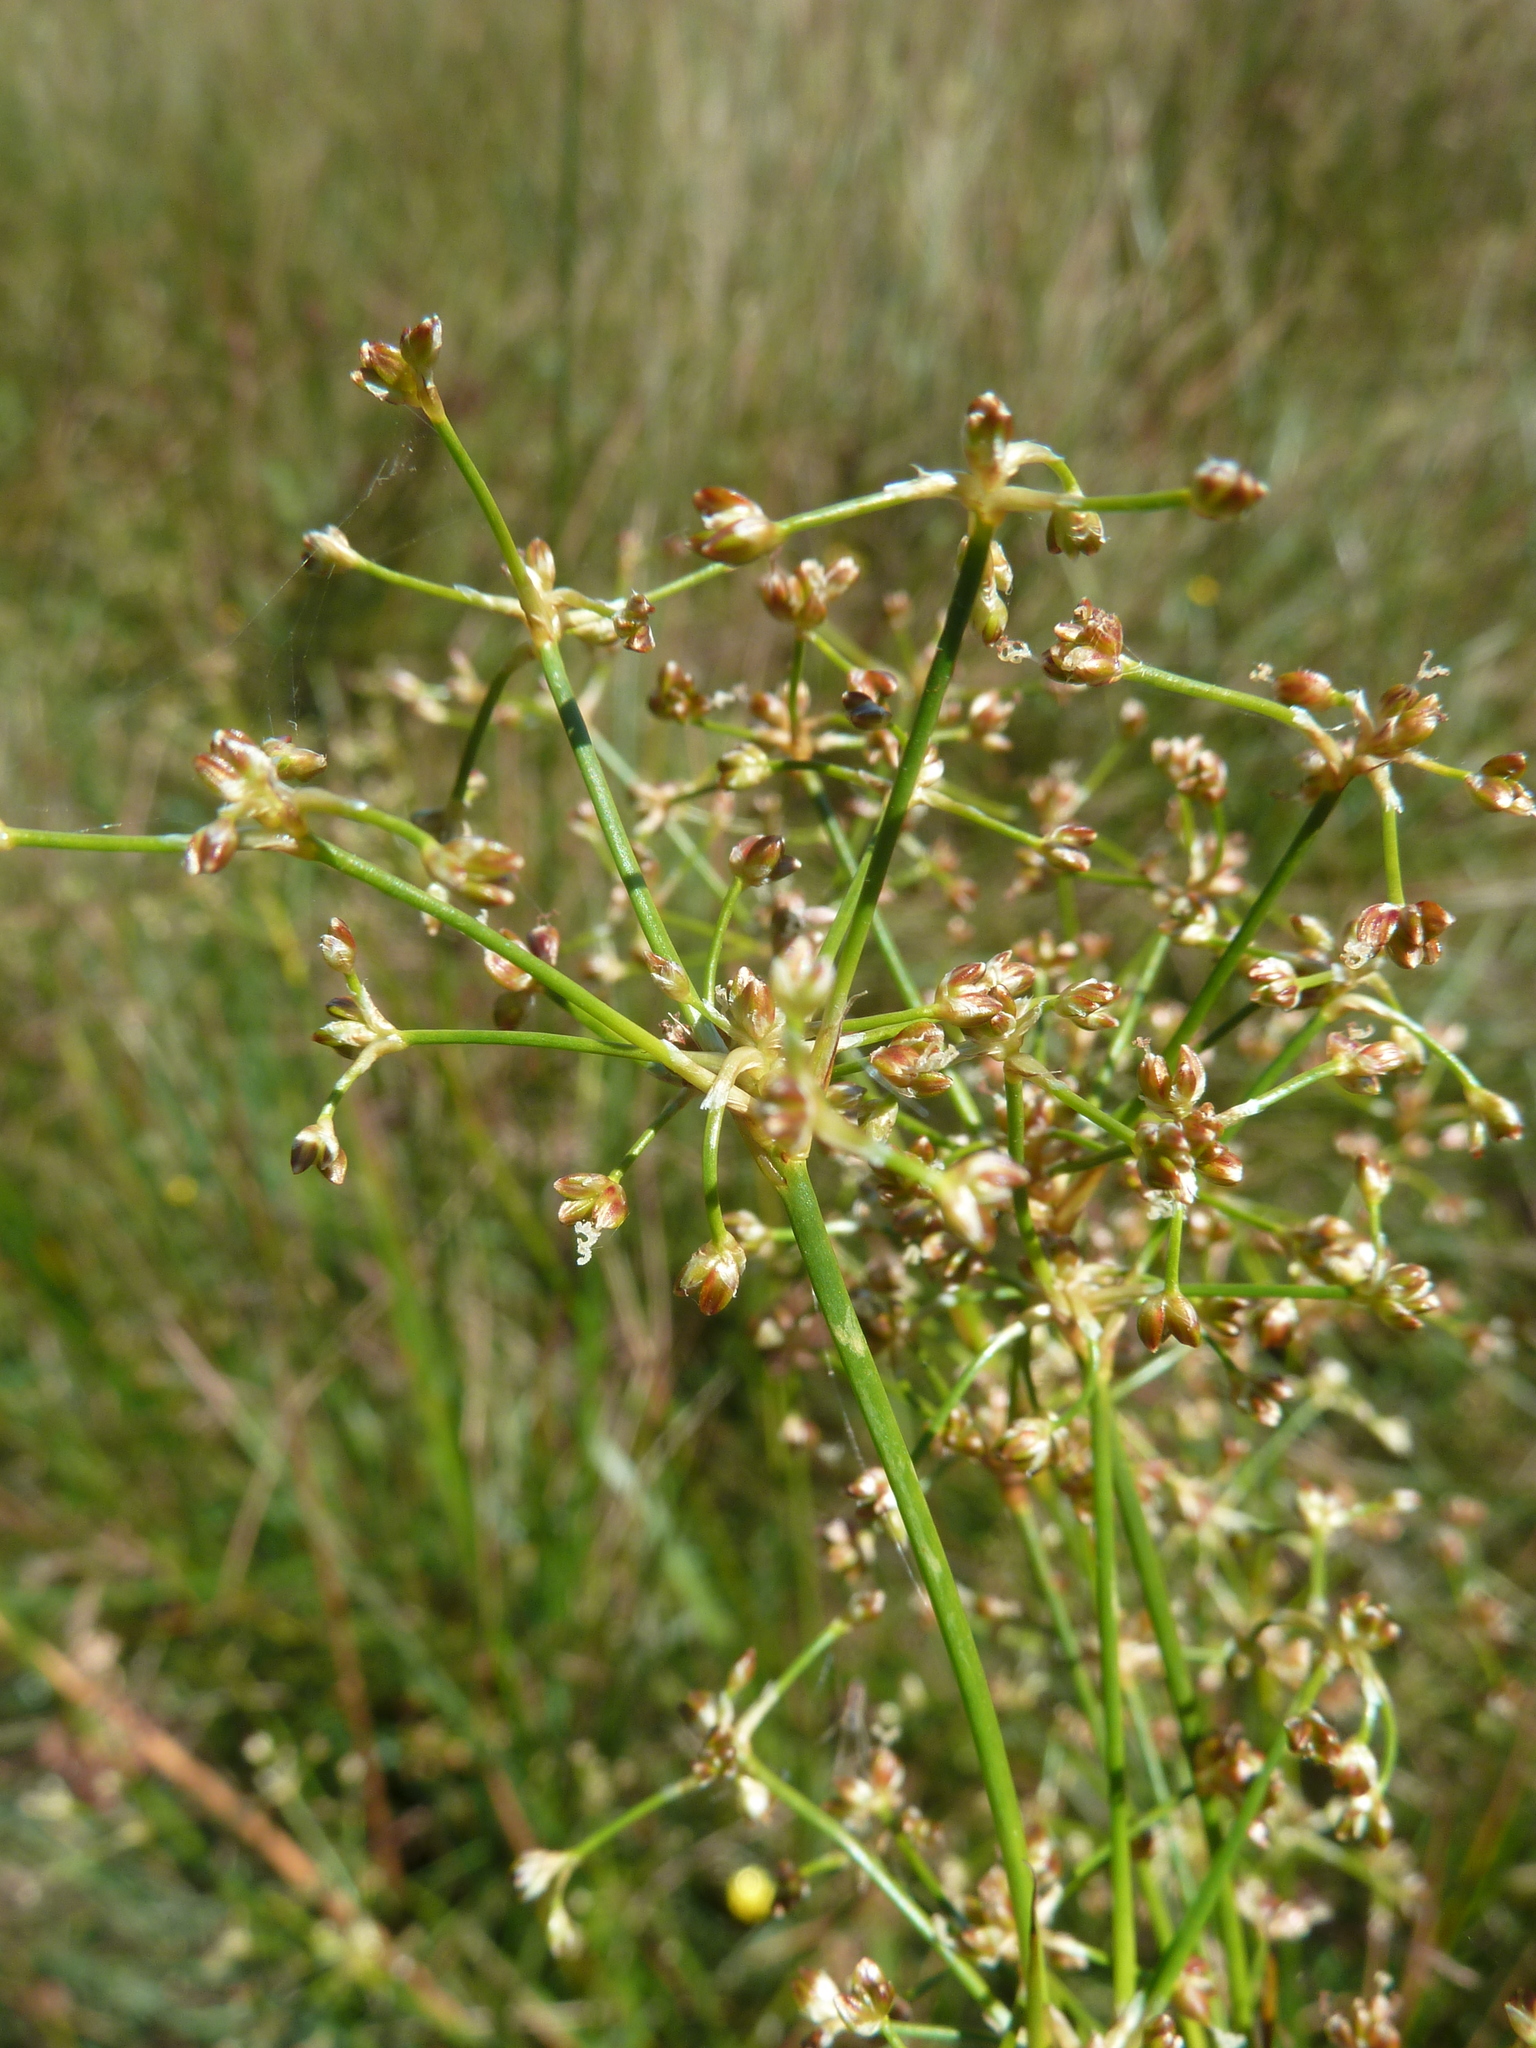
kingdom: Plantae
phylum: Tracheophyta
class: Liliopsida
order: Poales
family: Juncaceae
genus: Juncus
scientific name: Juncus subnodulosus
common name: Blunt-flowered rush
